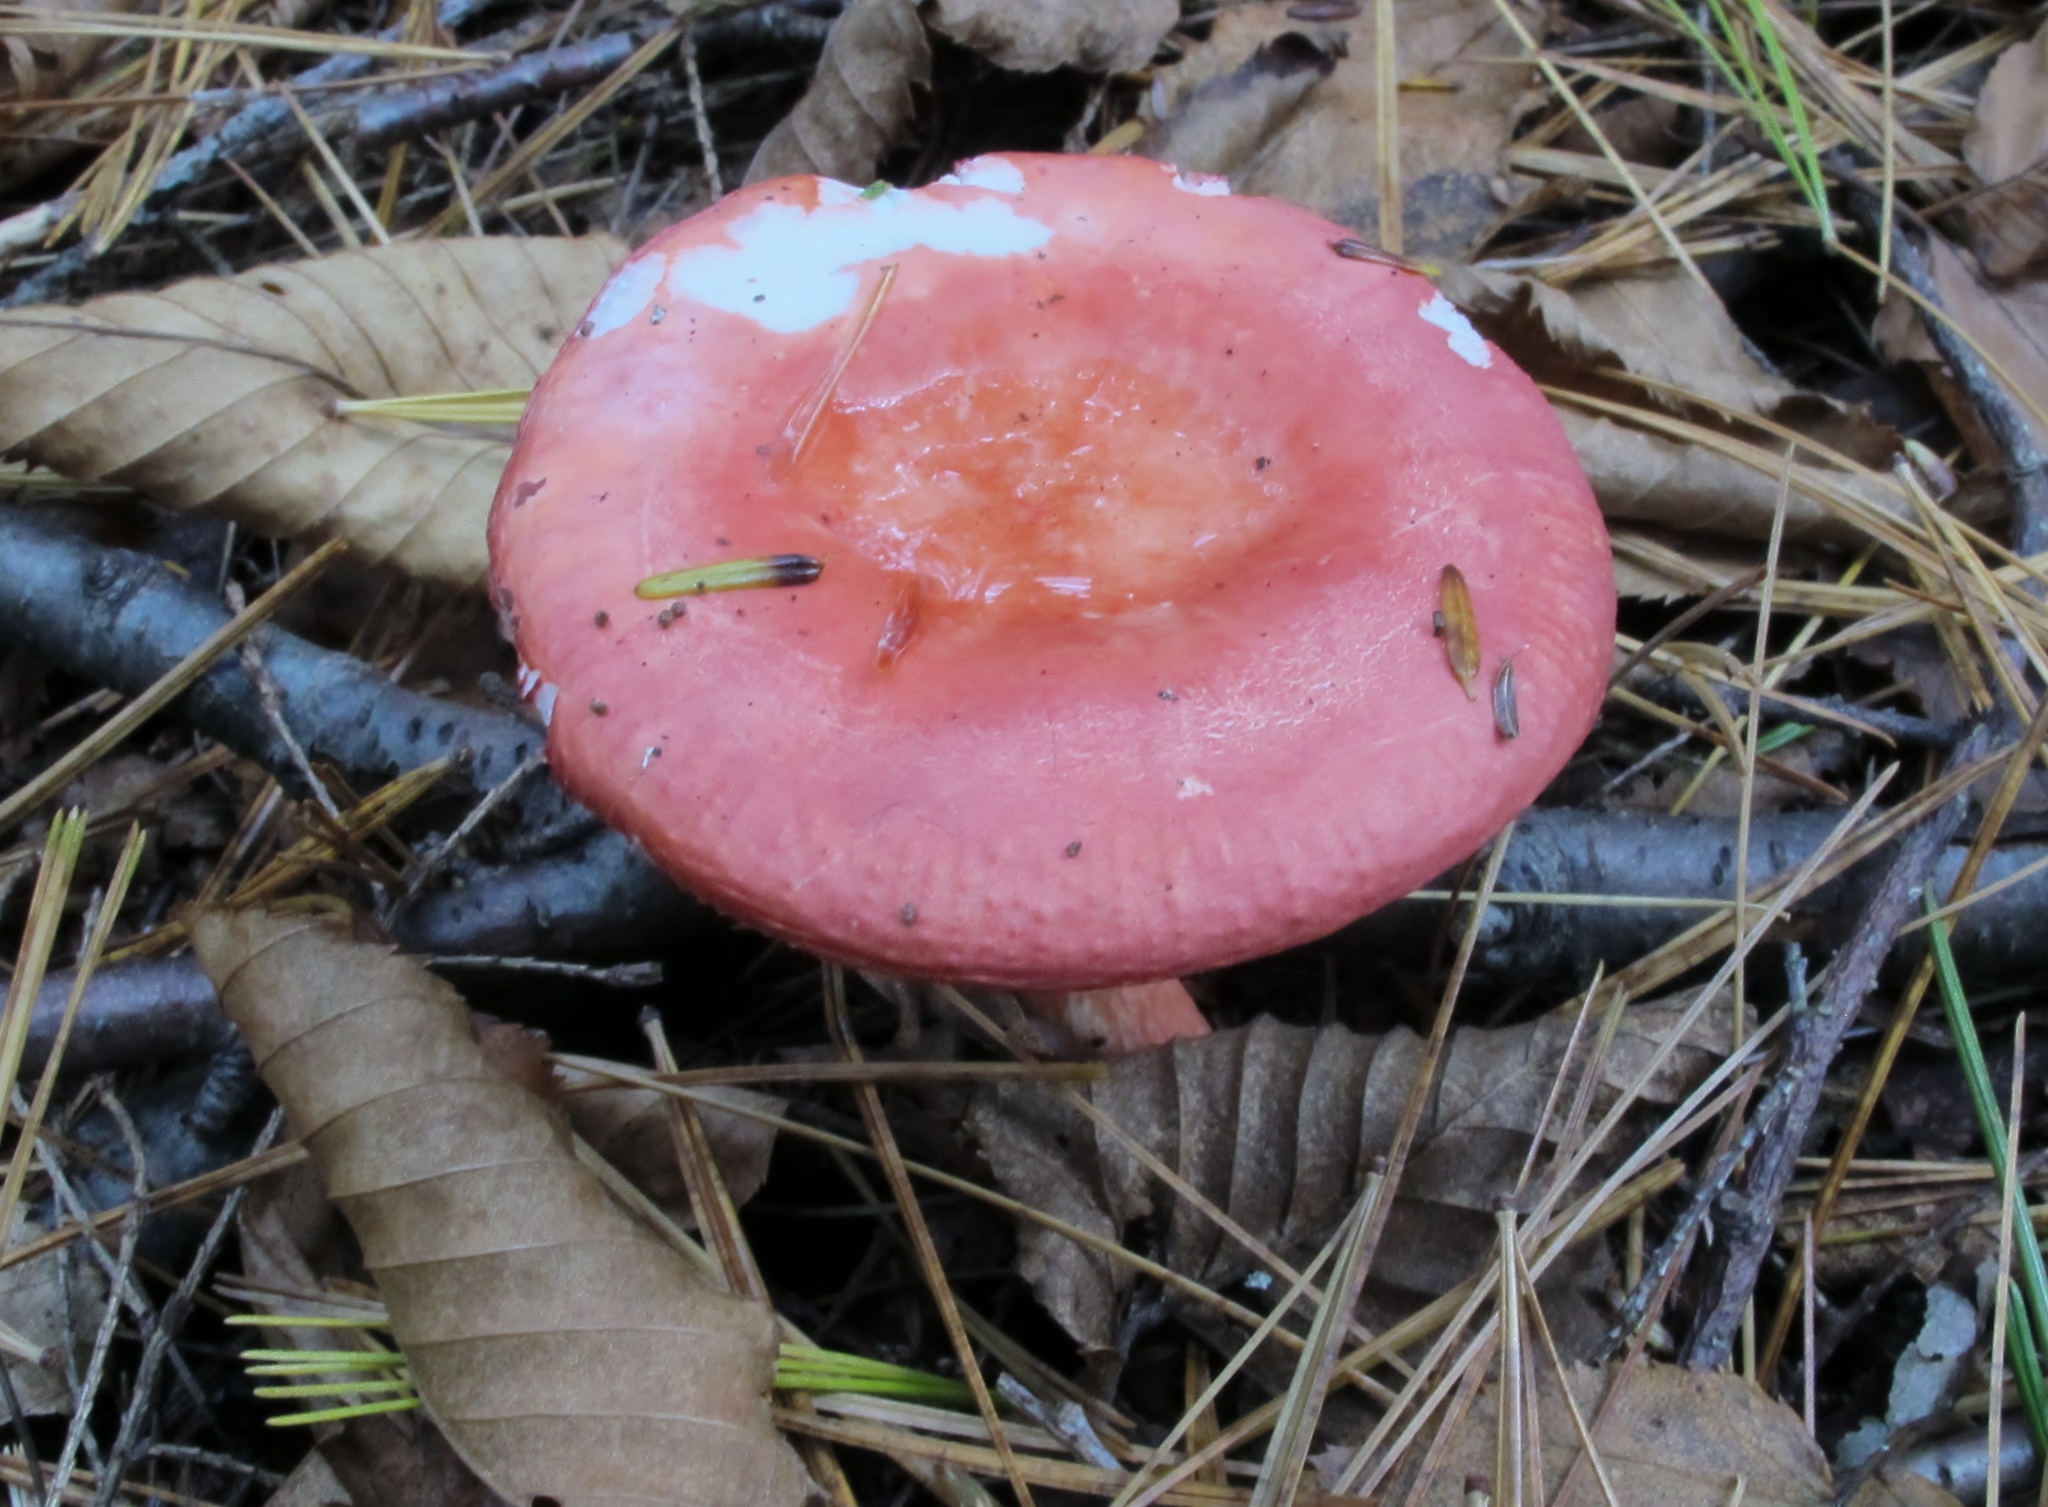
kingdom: Fungi
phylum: Basidiomycota
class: Agaricomycetes
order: Russulales
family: Russulaceae
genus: Russula
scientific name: Russula peckii
